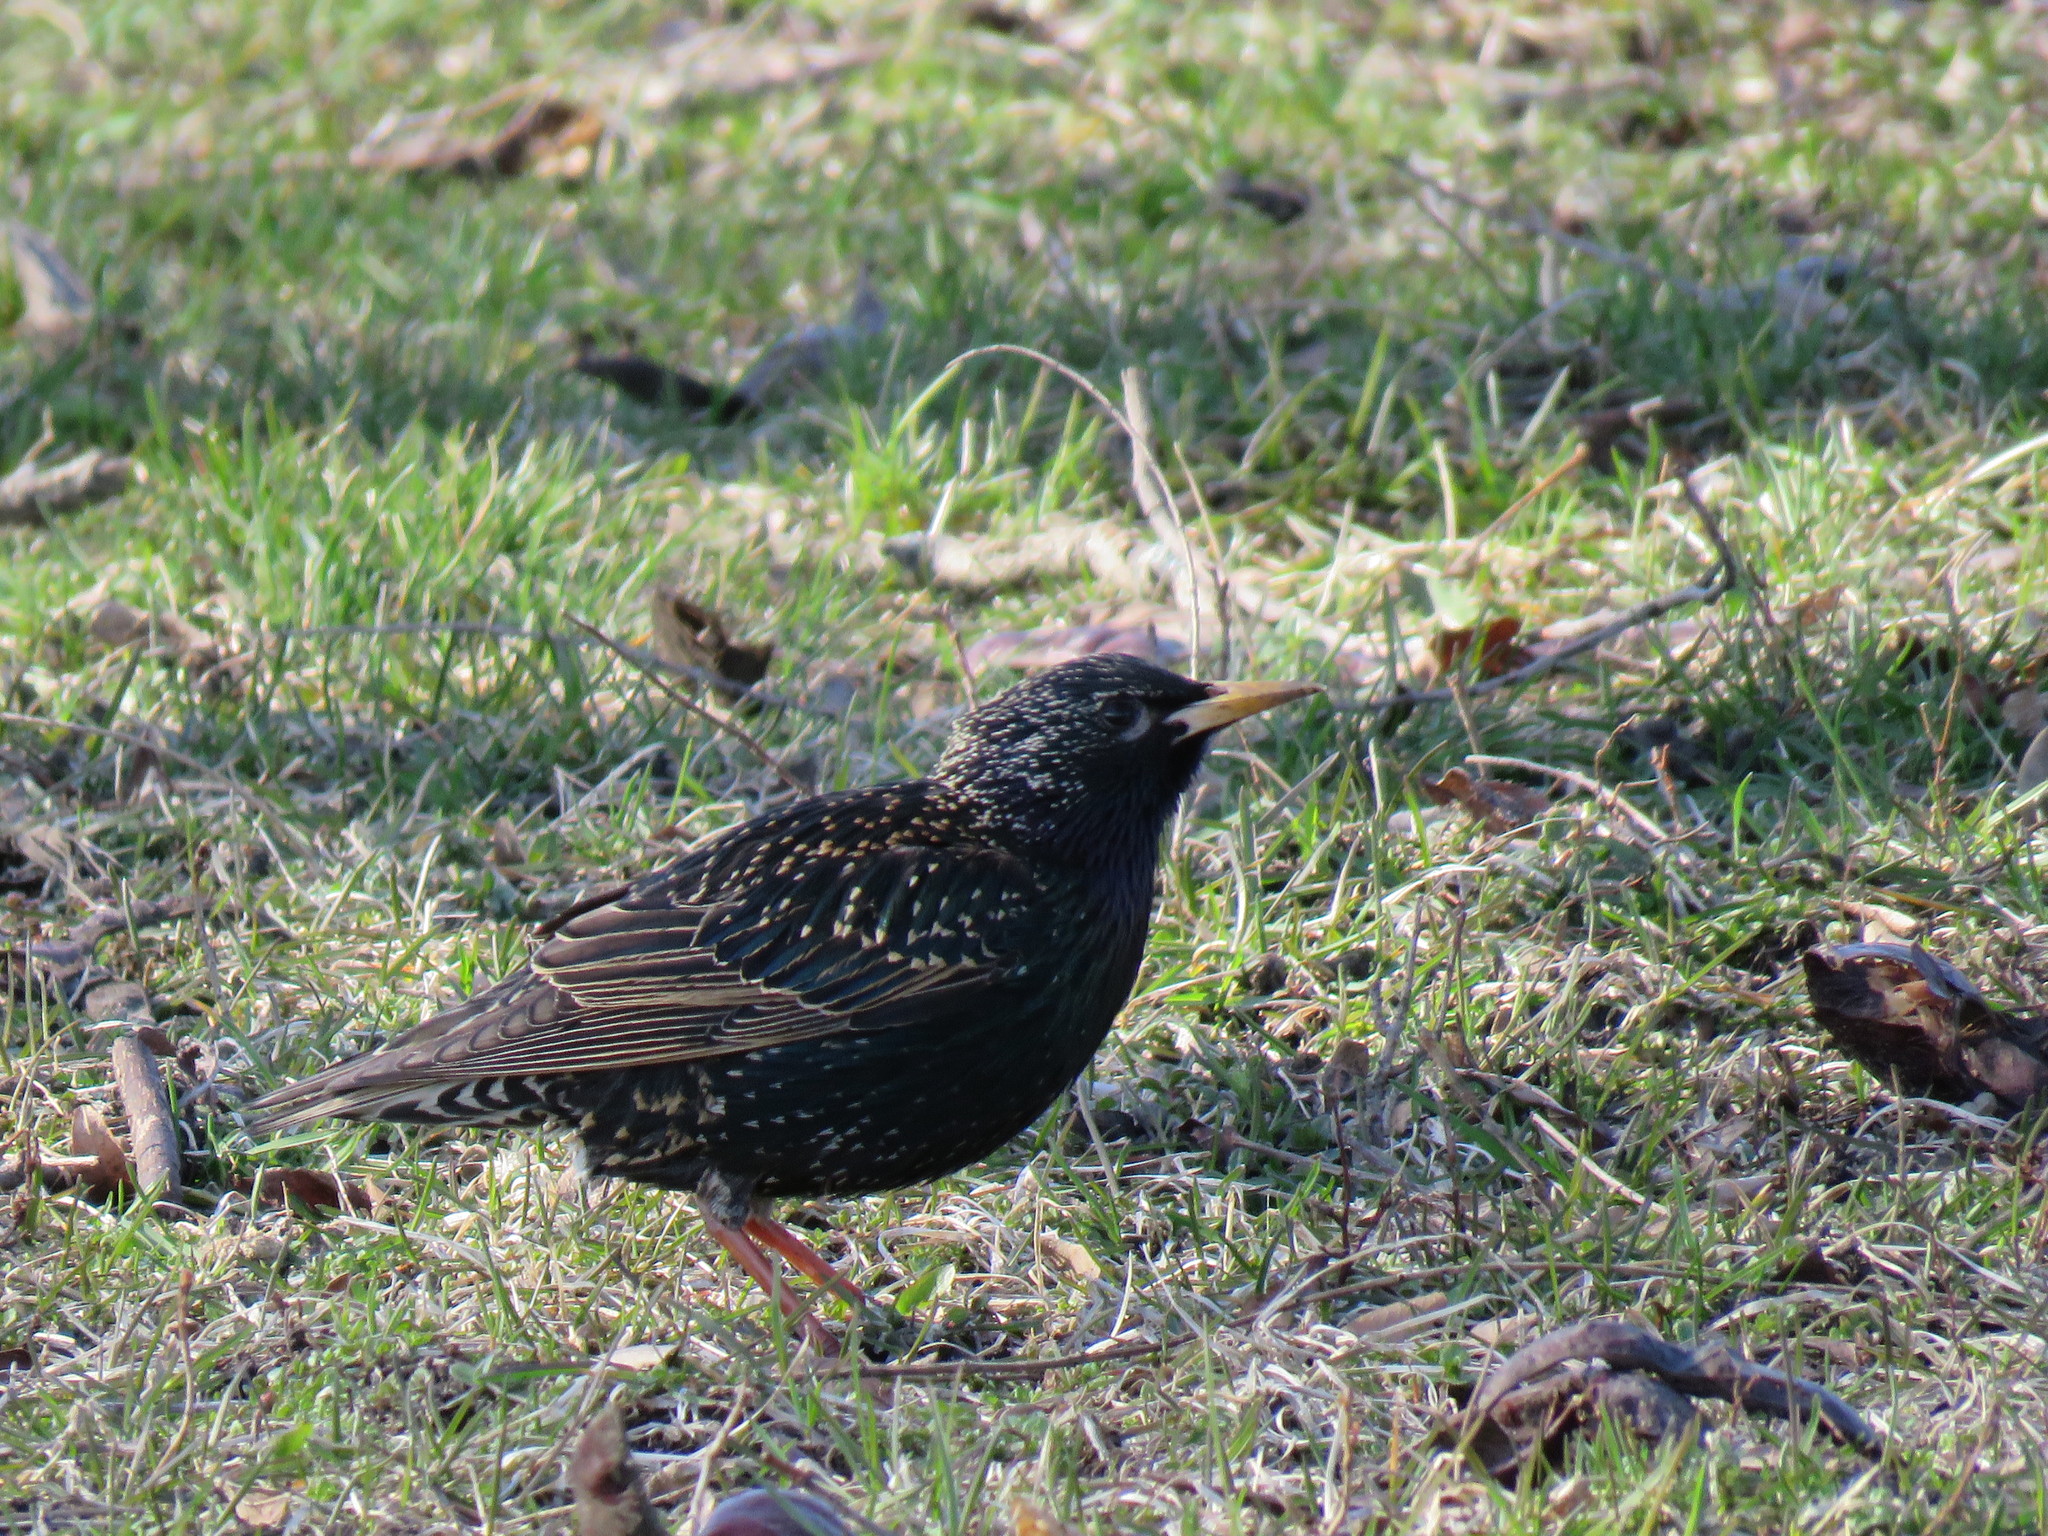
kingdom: Animalia
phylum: Chordata
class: Aves
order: Passeriformes
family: Sturnidae
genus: Sturnus
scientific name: Sturnus vulgaris
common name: Common starling
